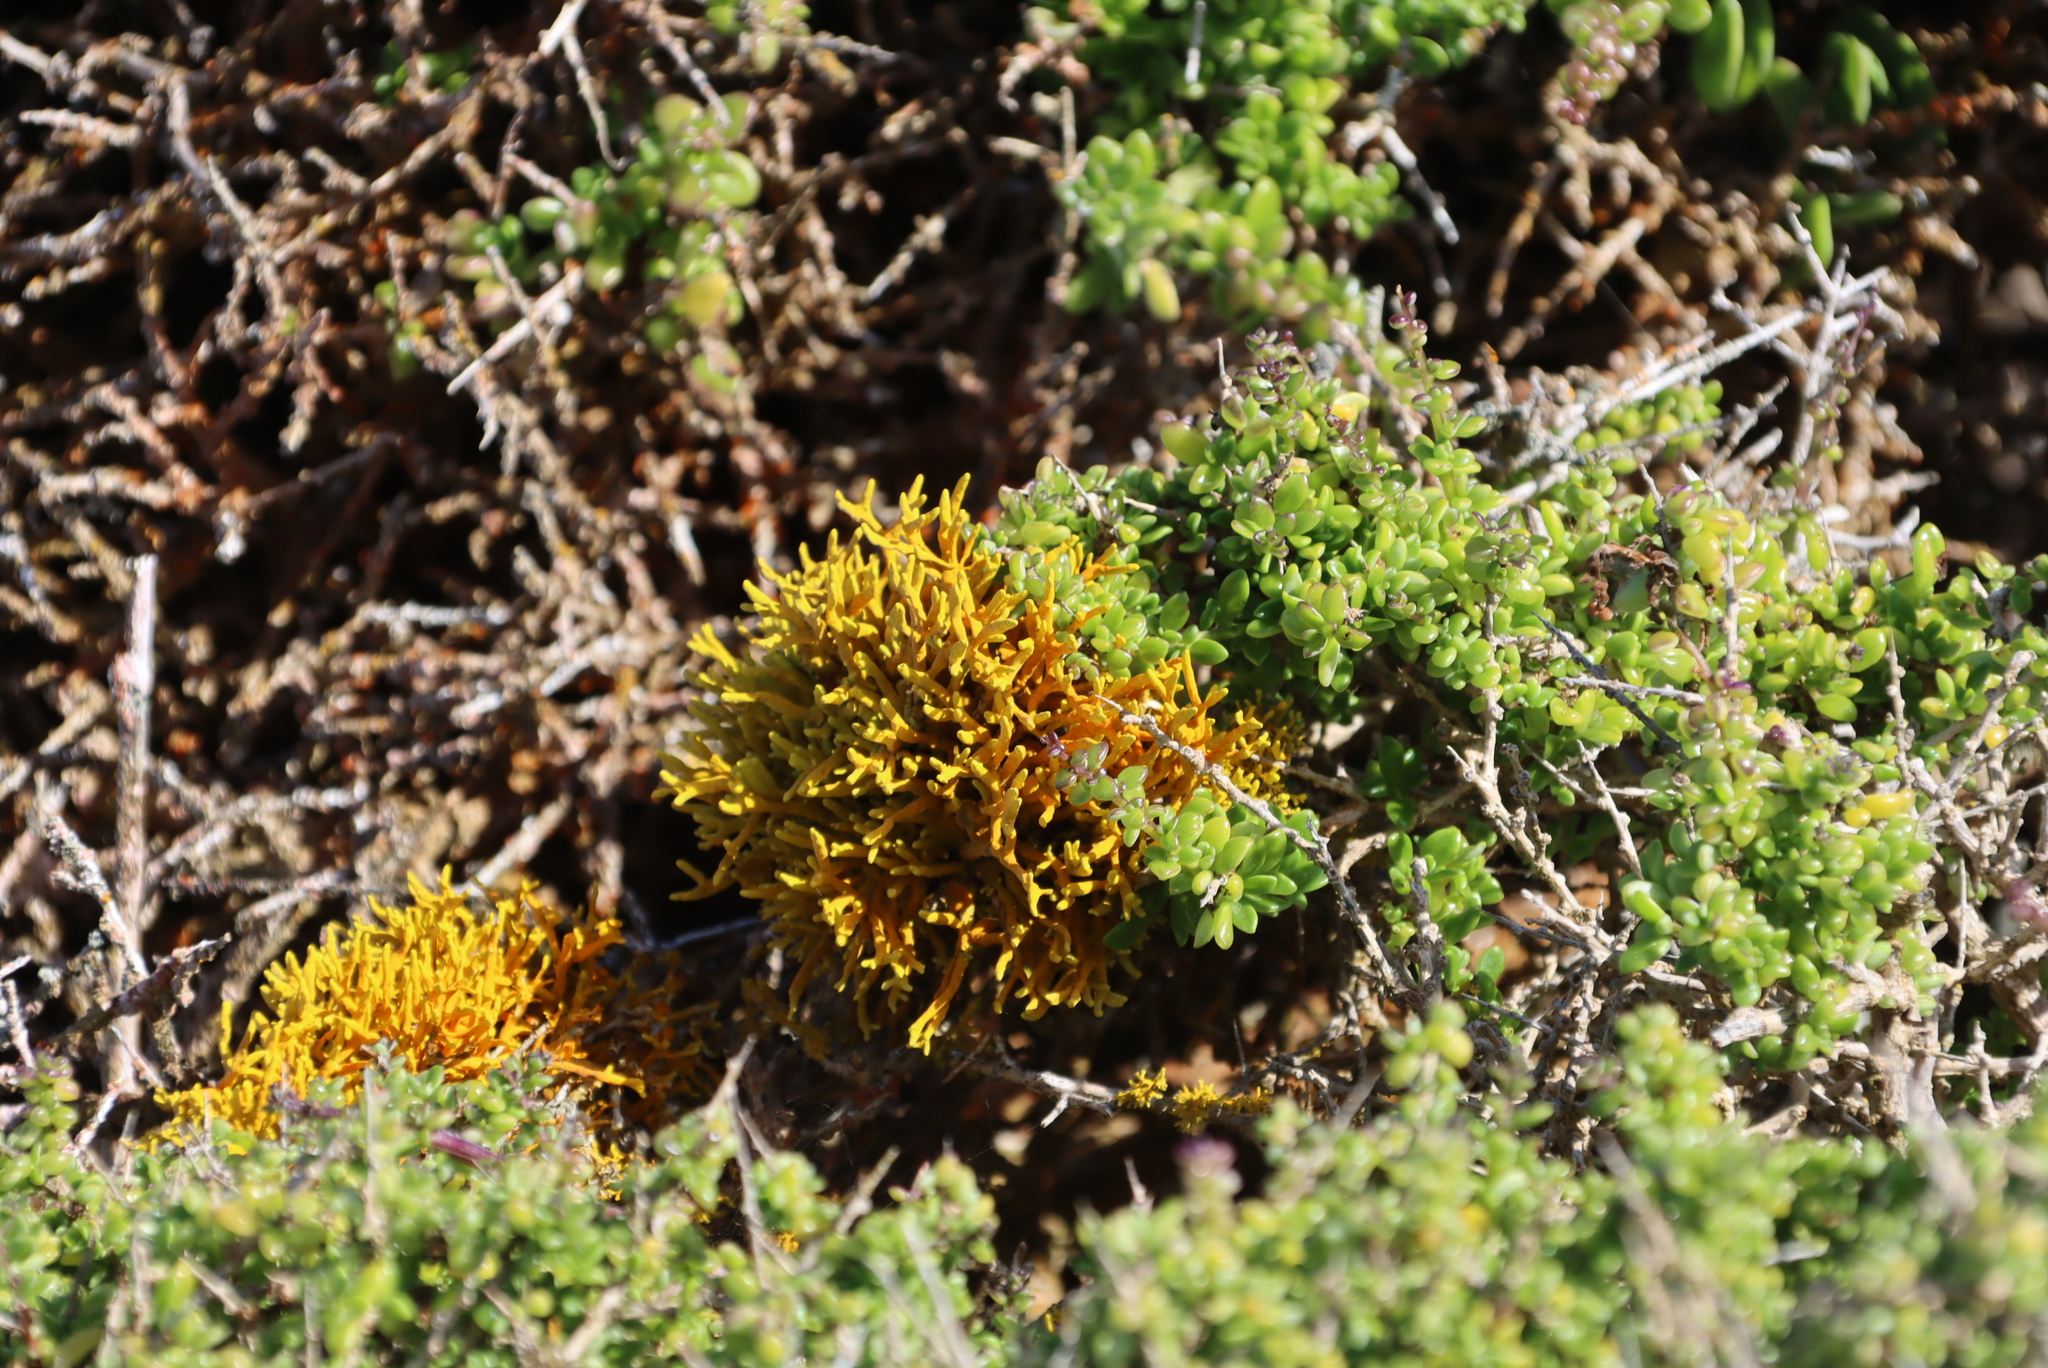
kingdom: Fungi
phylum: Ascomycota
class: Lecanoromycetes
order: Teloschistales
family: Teloschistaceae
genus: Dufourea
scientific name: Dufourea flammea
